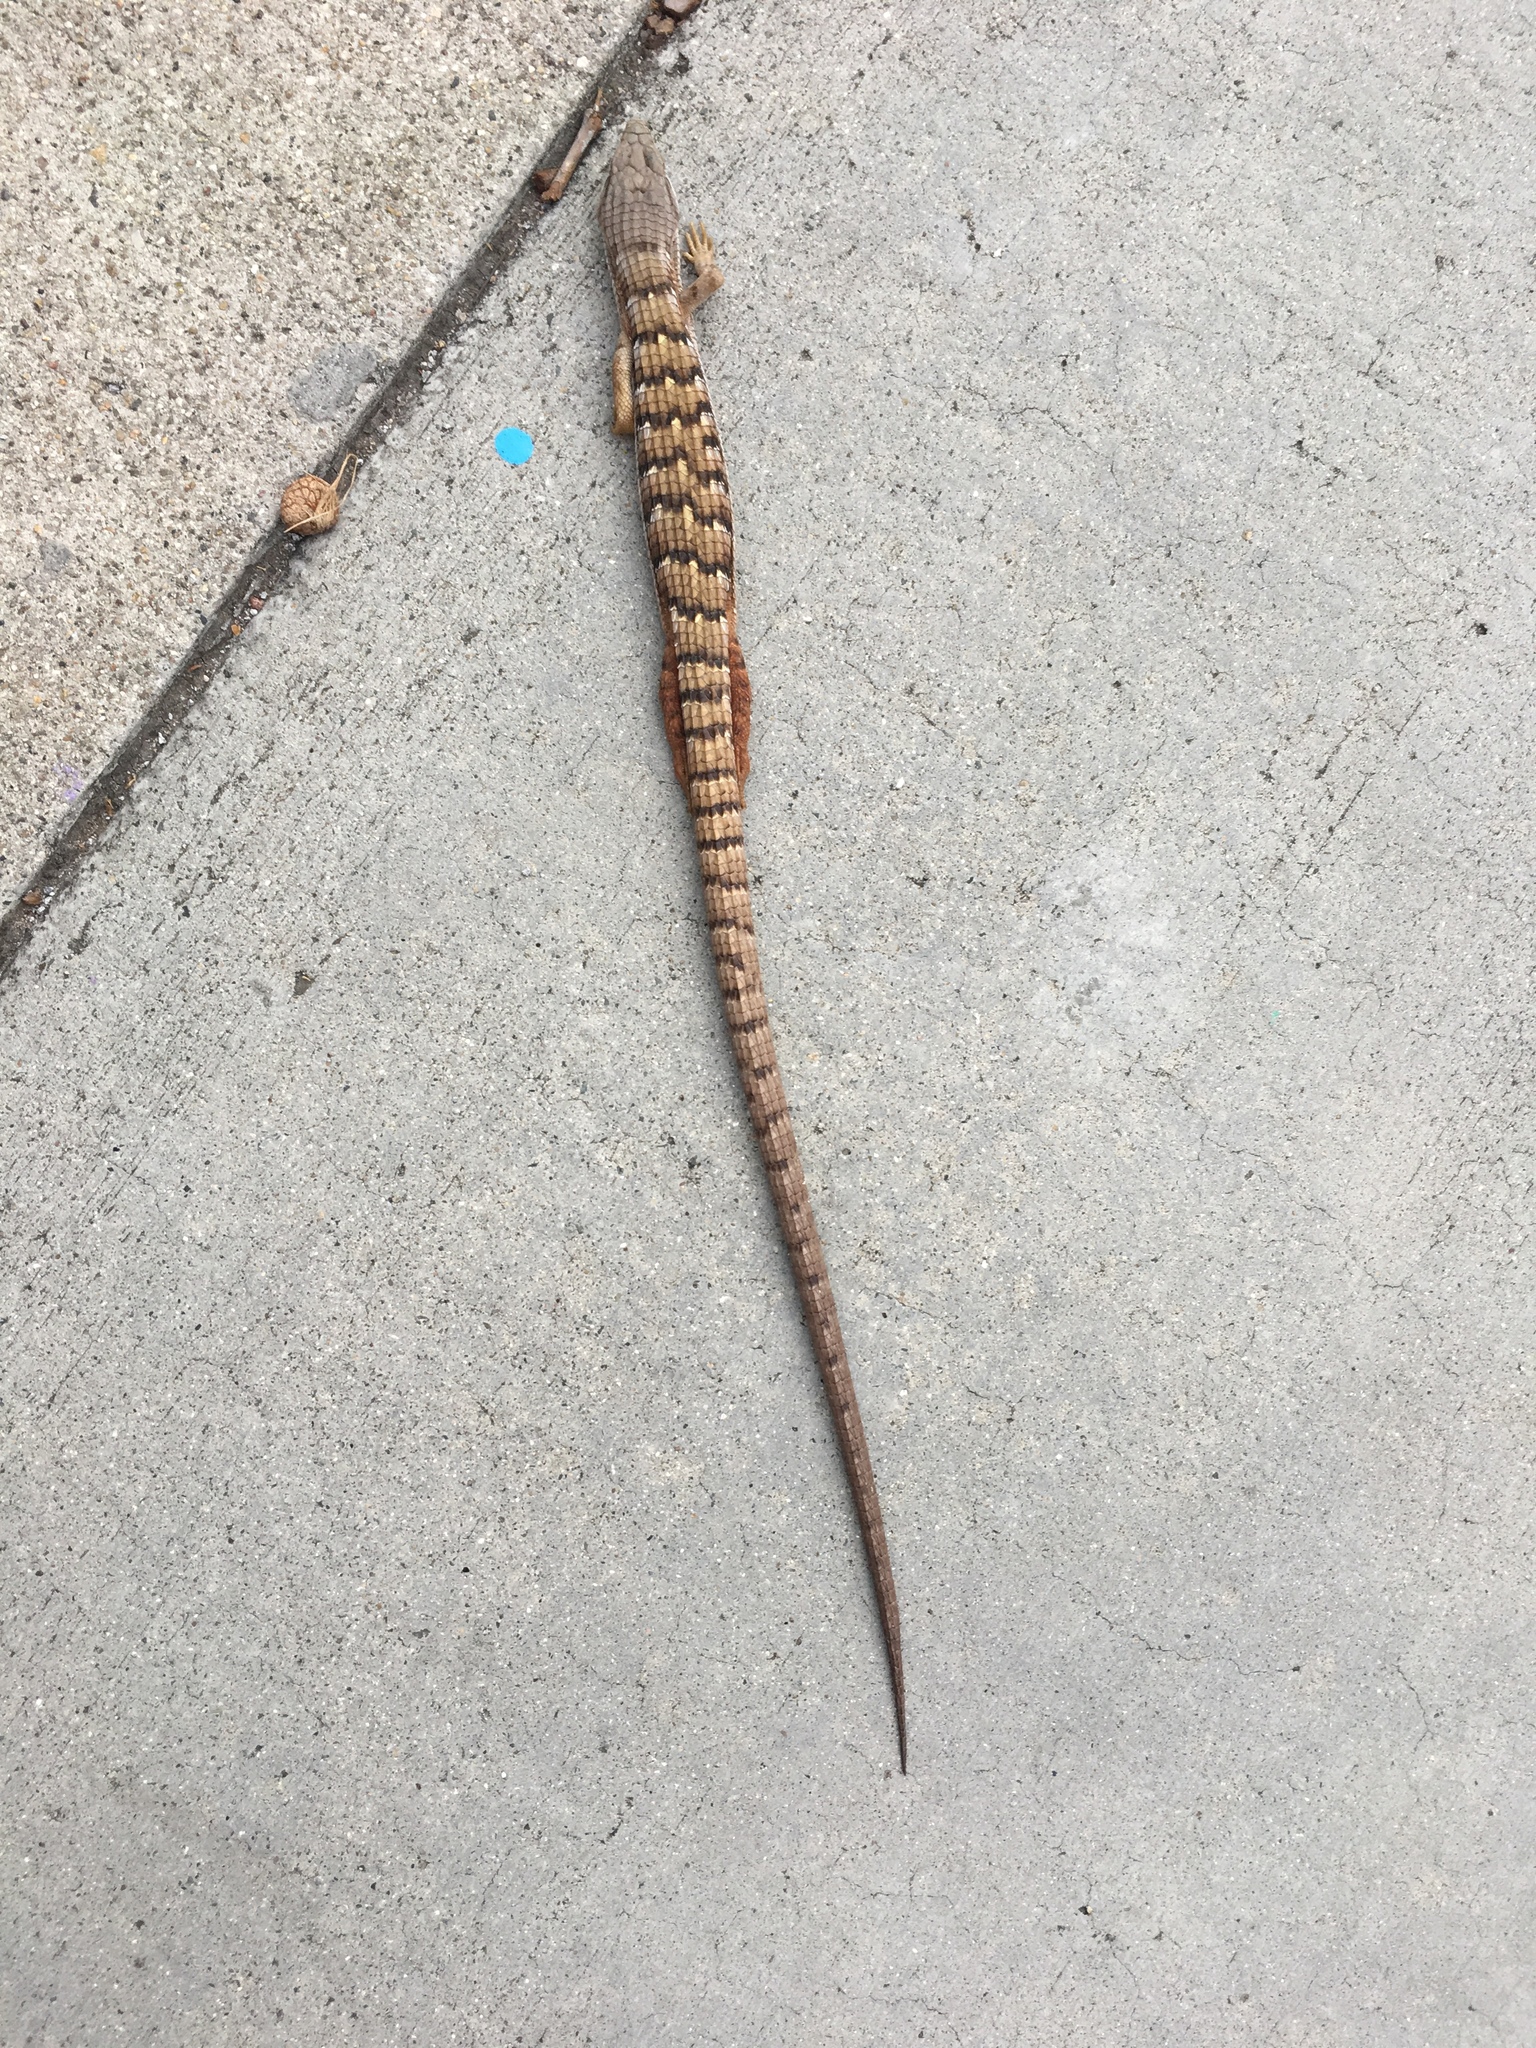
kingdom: Animalia
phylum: Chordata
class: Squamata
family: Anguidae
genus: Elgaria
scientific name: Elgaria multicarinata
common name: Southern alligator lizard
